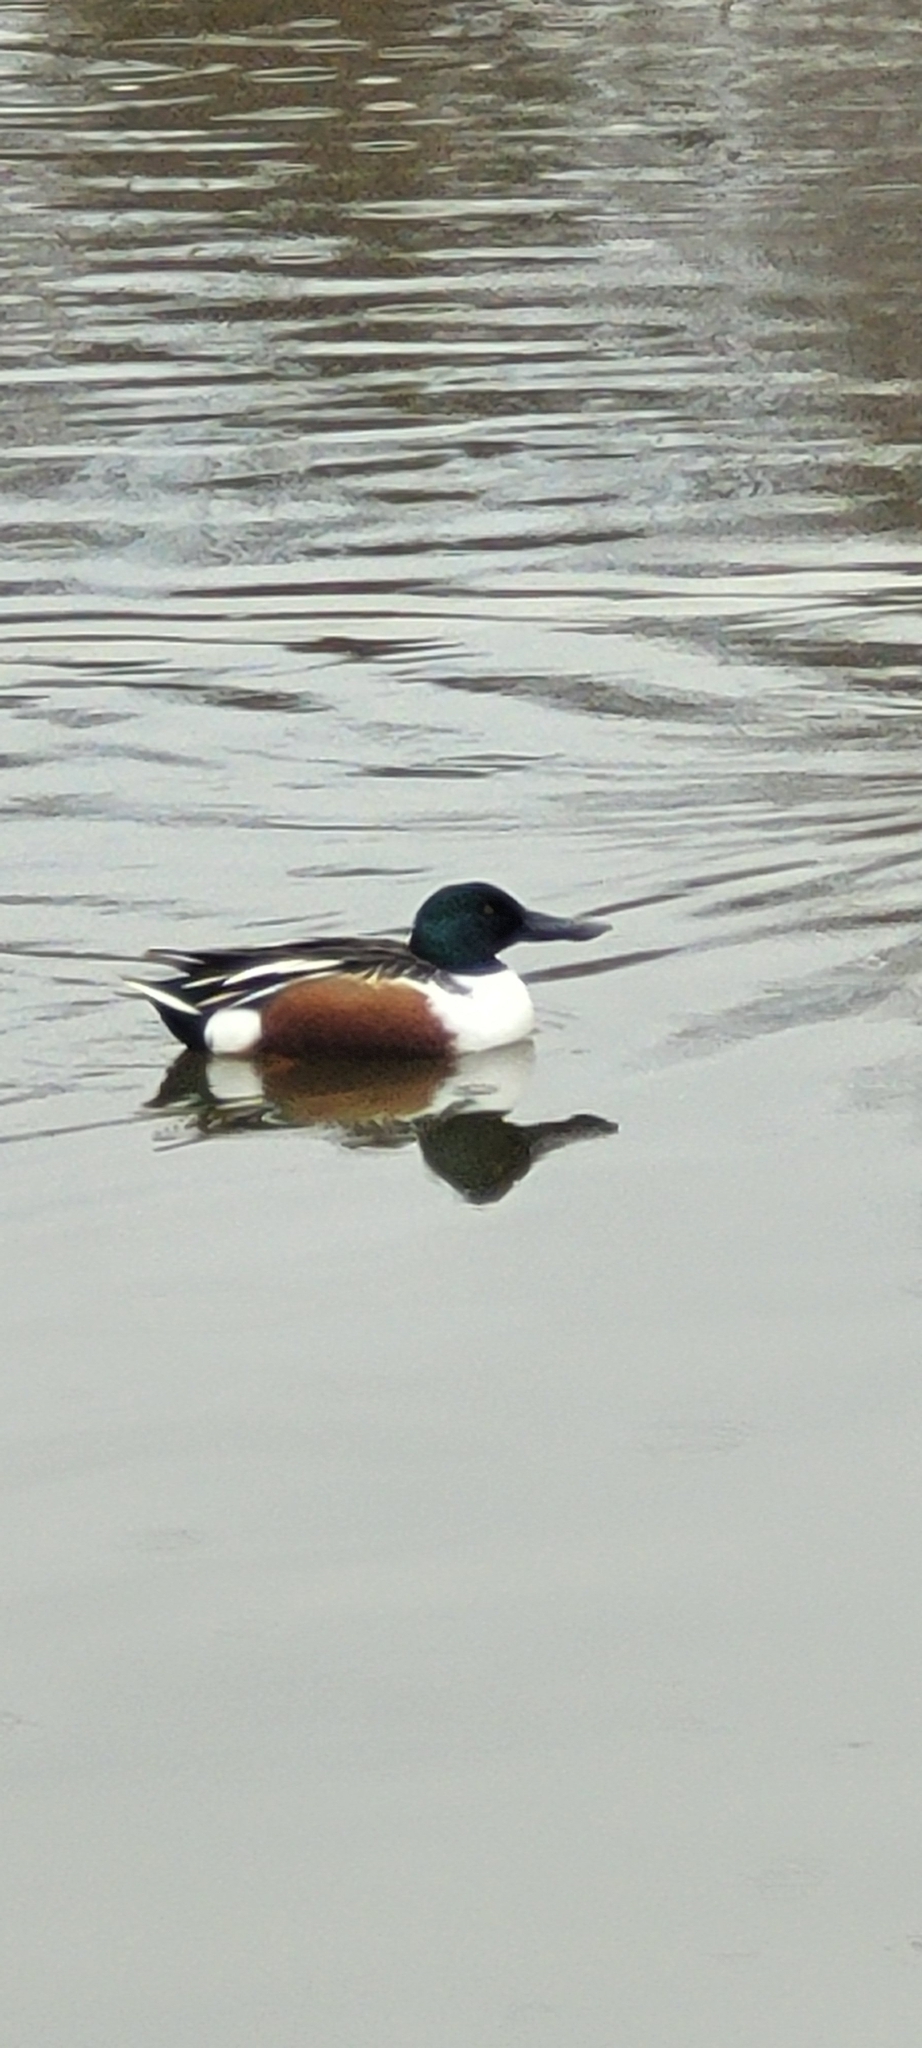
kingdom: Animalia
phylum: Chordata
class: Aves
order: Anseriformes
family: Anatidae
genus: Spatula
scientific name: Spatula clypeata
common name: Northern shoveler
